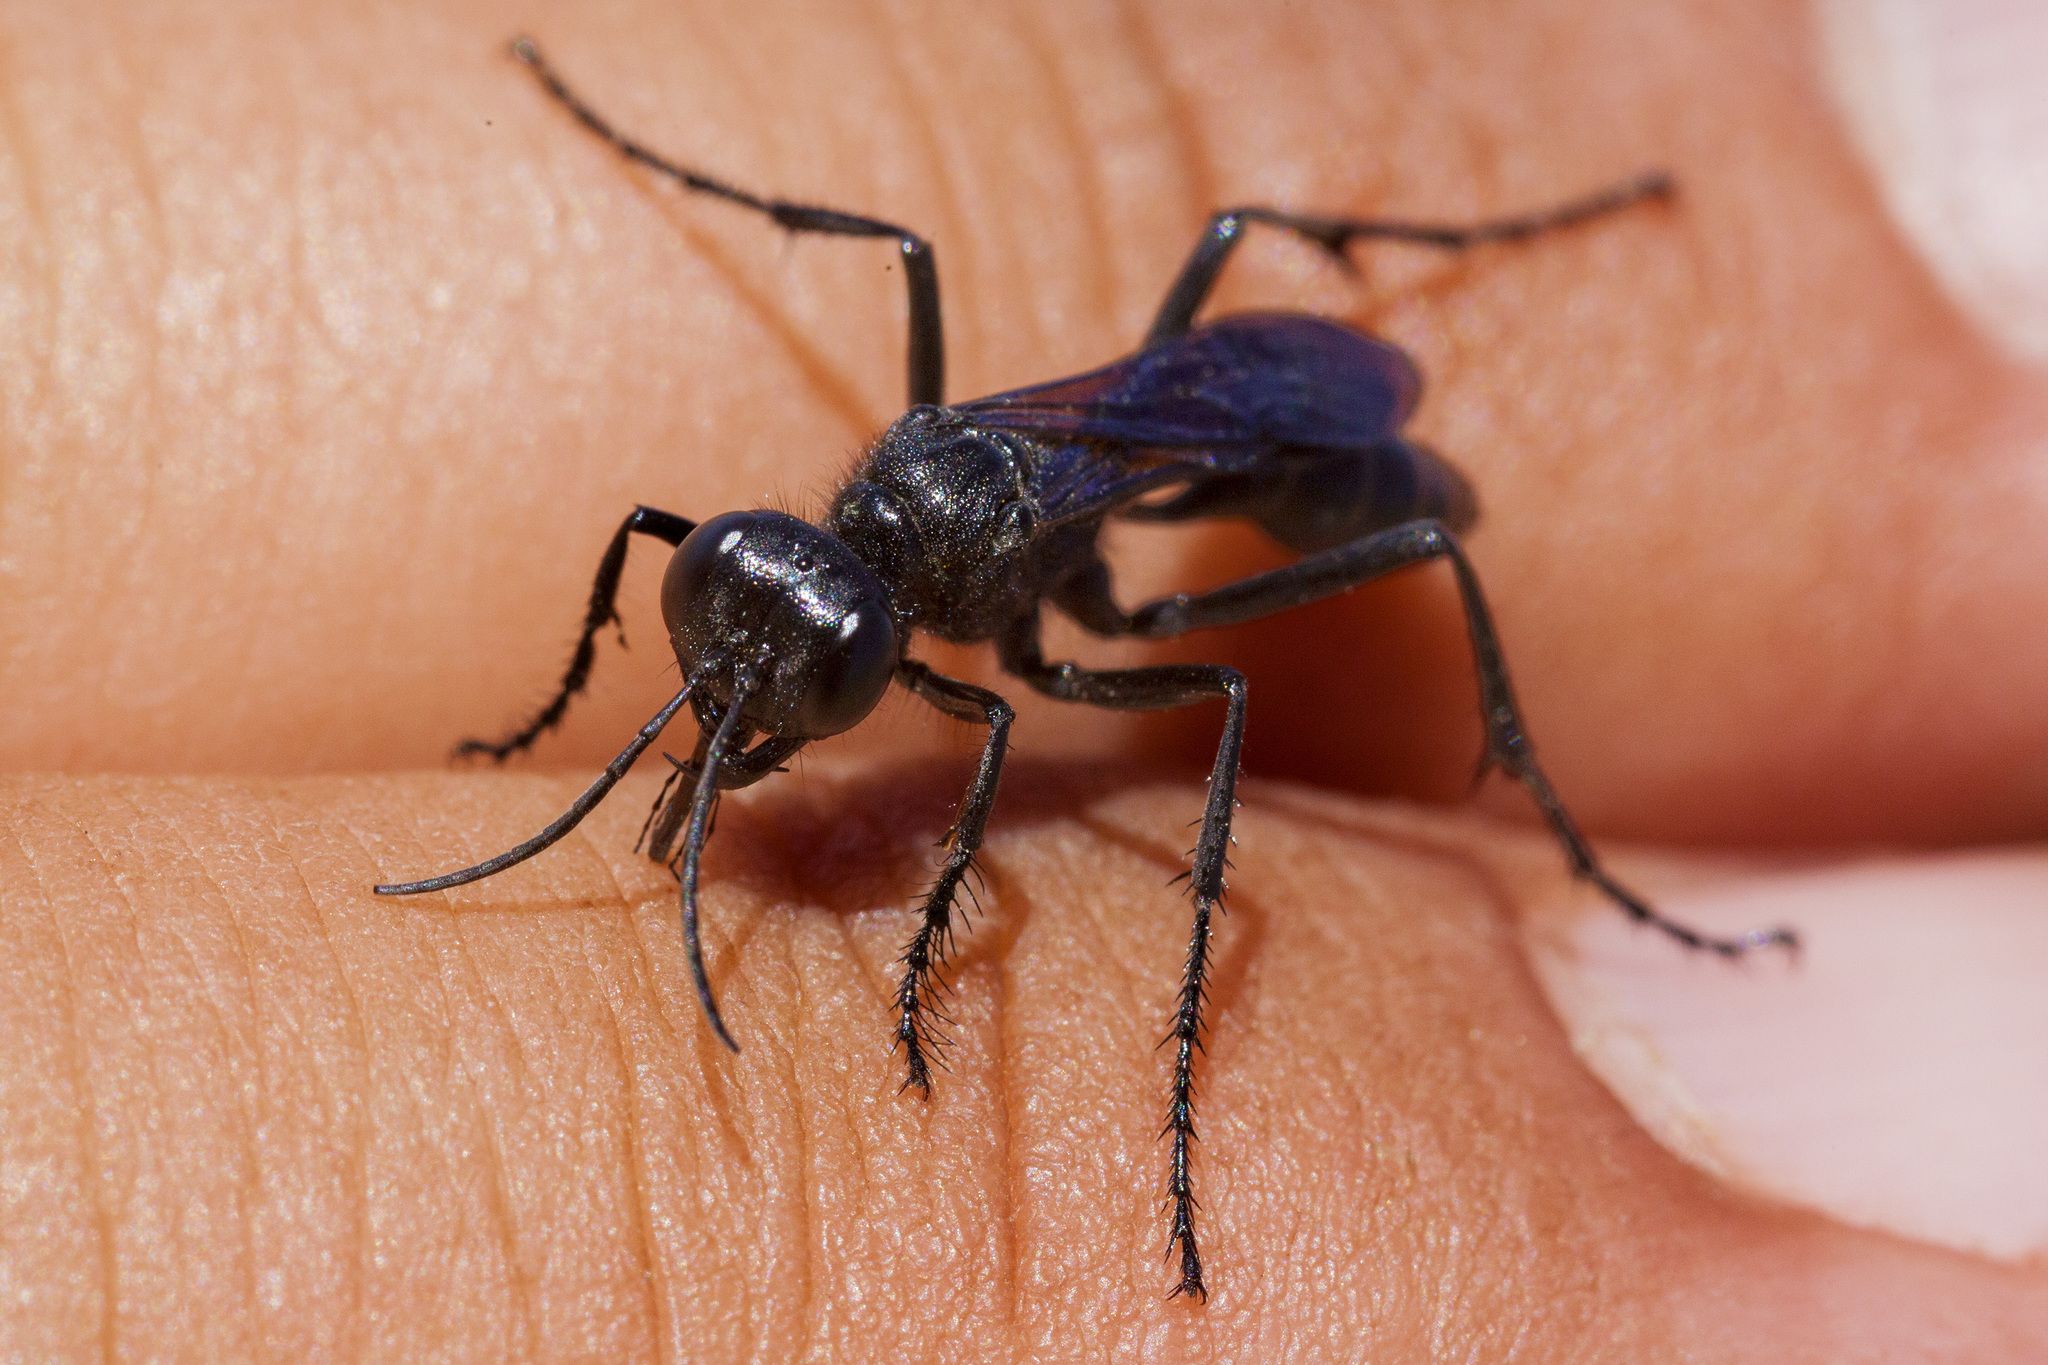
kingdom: Animalia
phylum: Arthropoda
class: Insecta
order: Hymenoptera
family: Sphecidae
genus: Podalonia
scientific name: Podalonia
